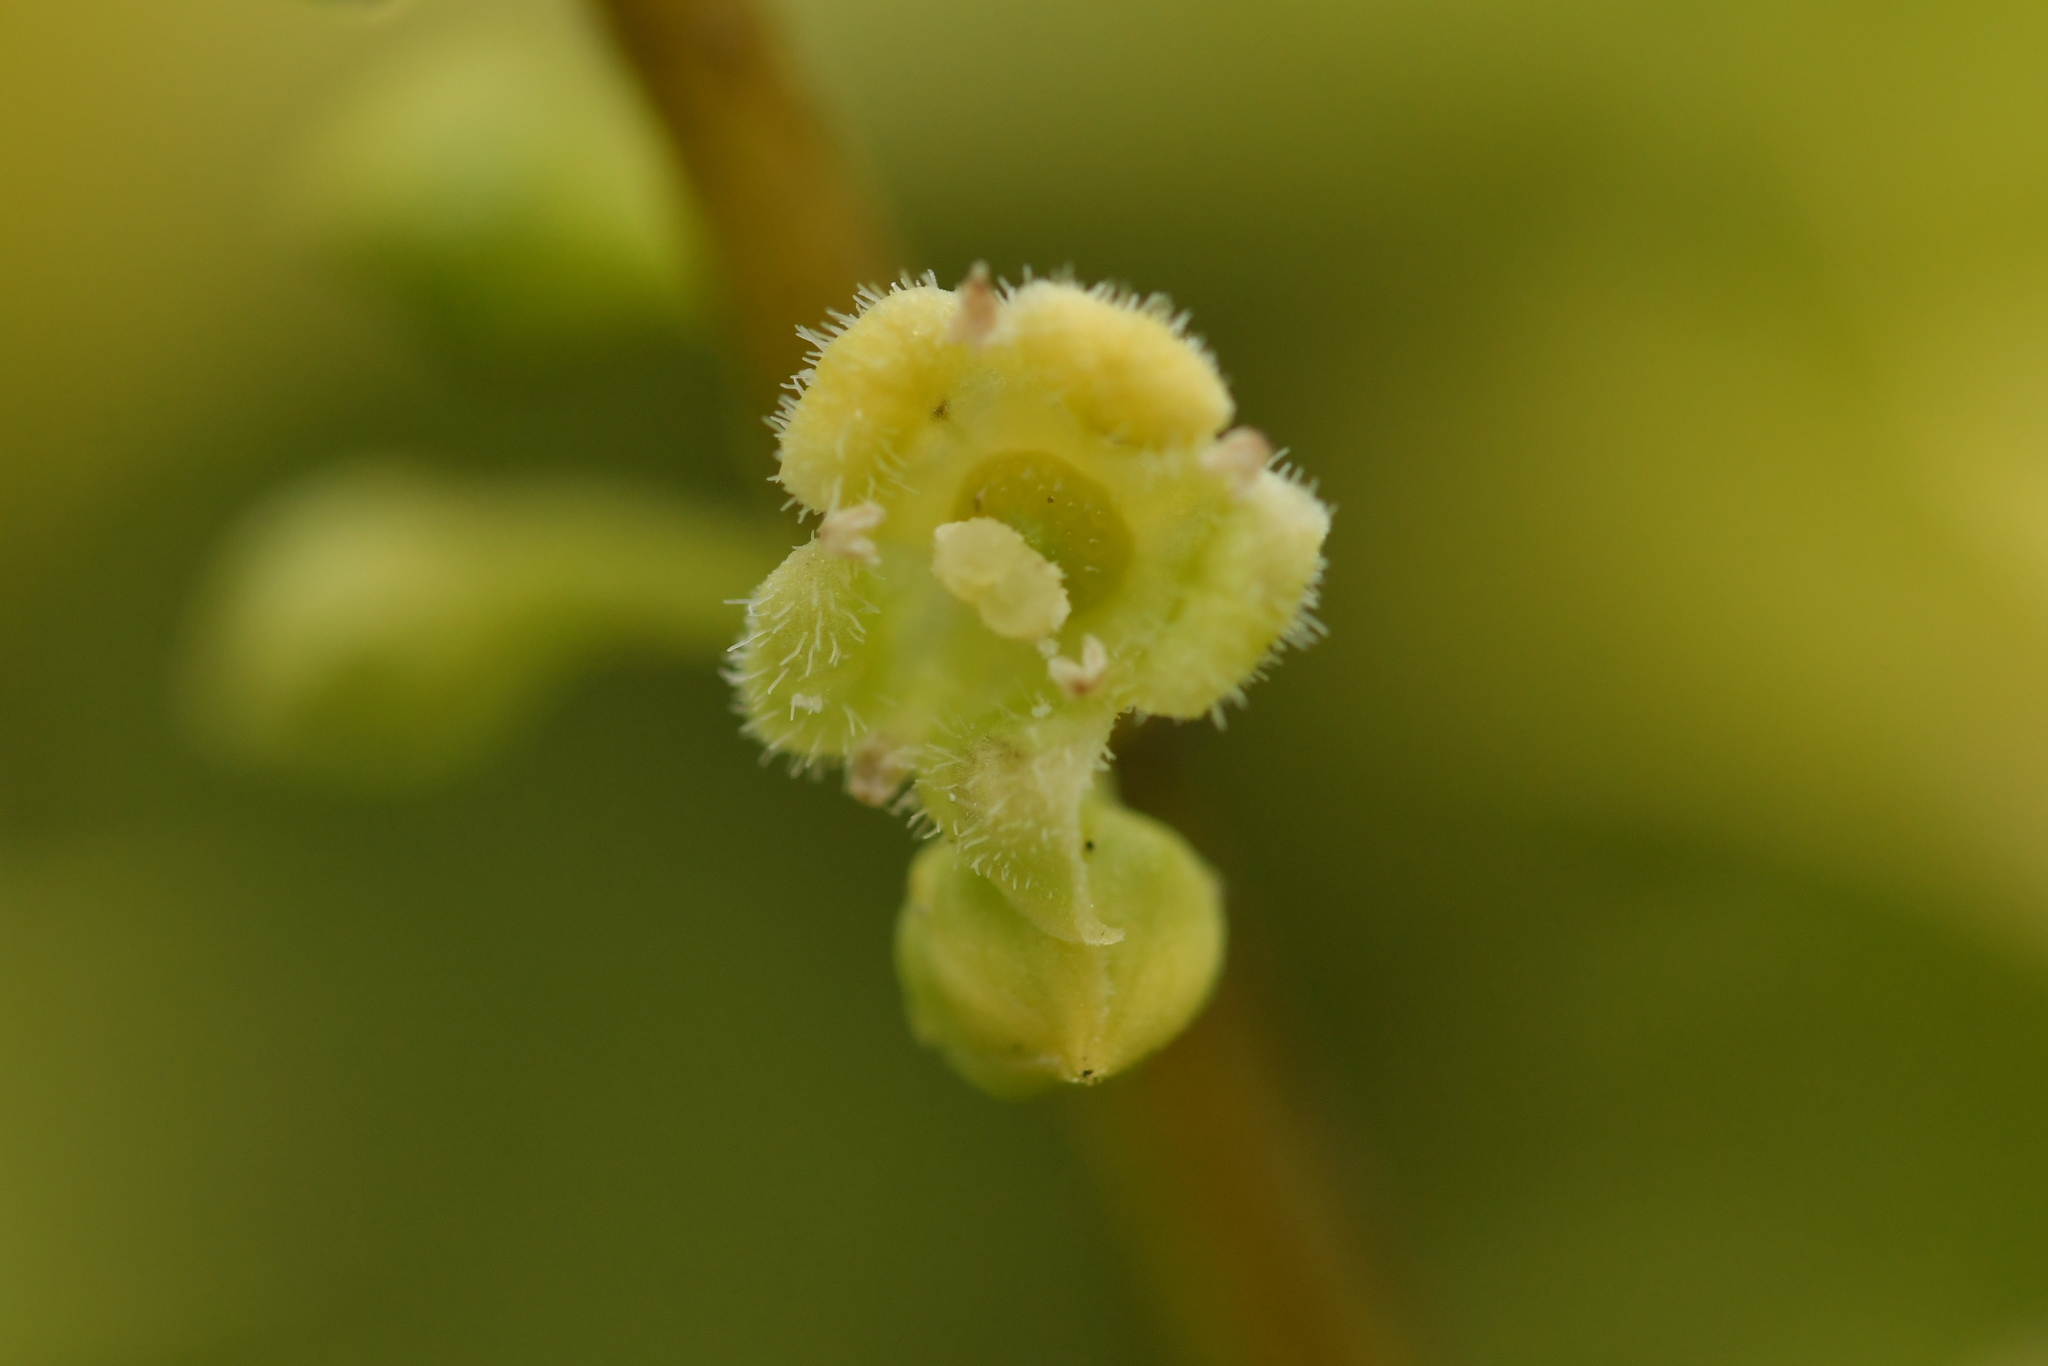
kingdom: Plantae
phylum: Tracheophyta
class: Magnoliopsida
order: Gentianales
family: Loganiaceae
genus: Geniostoma
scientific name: Geniostoma ligustrifolium
